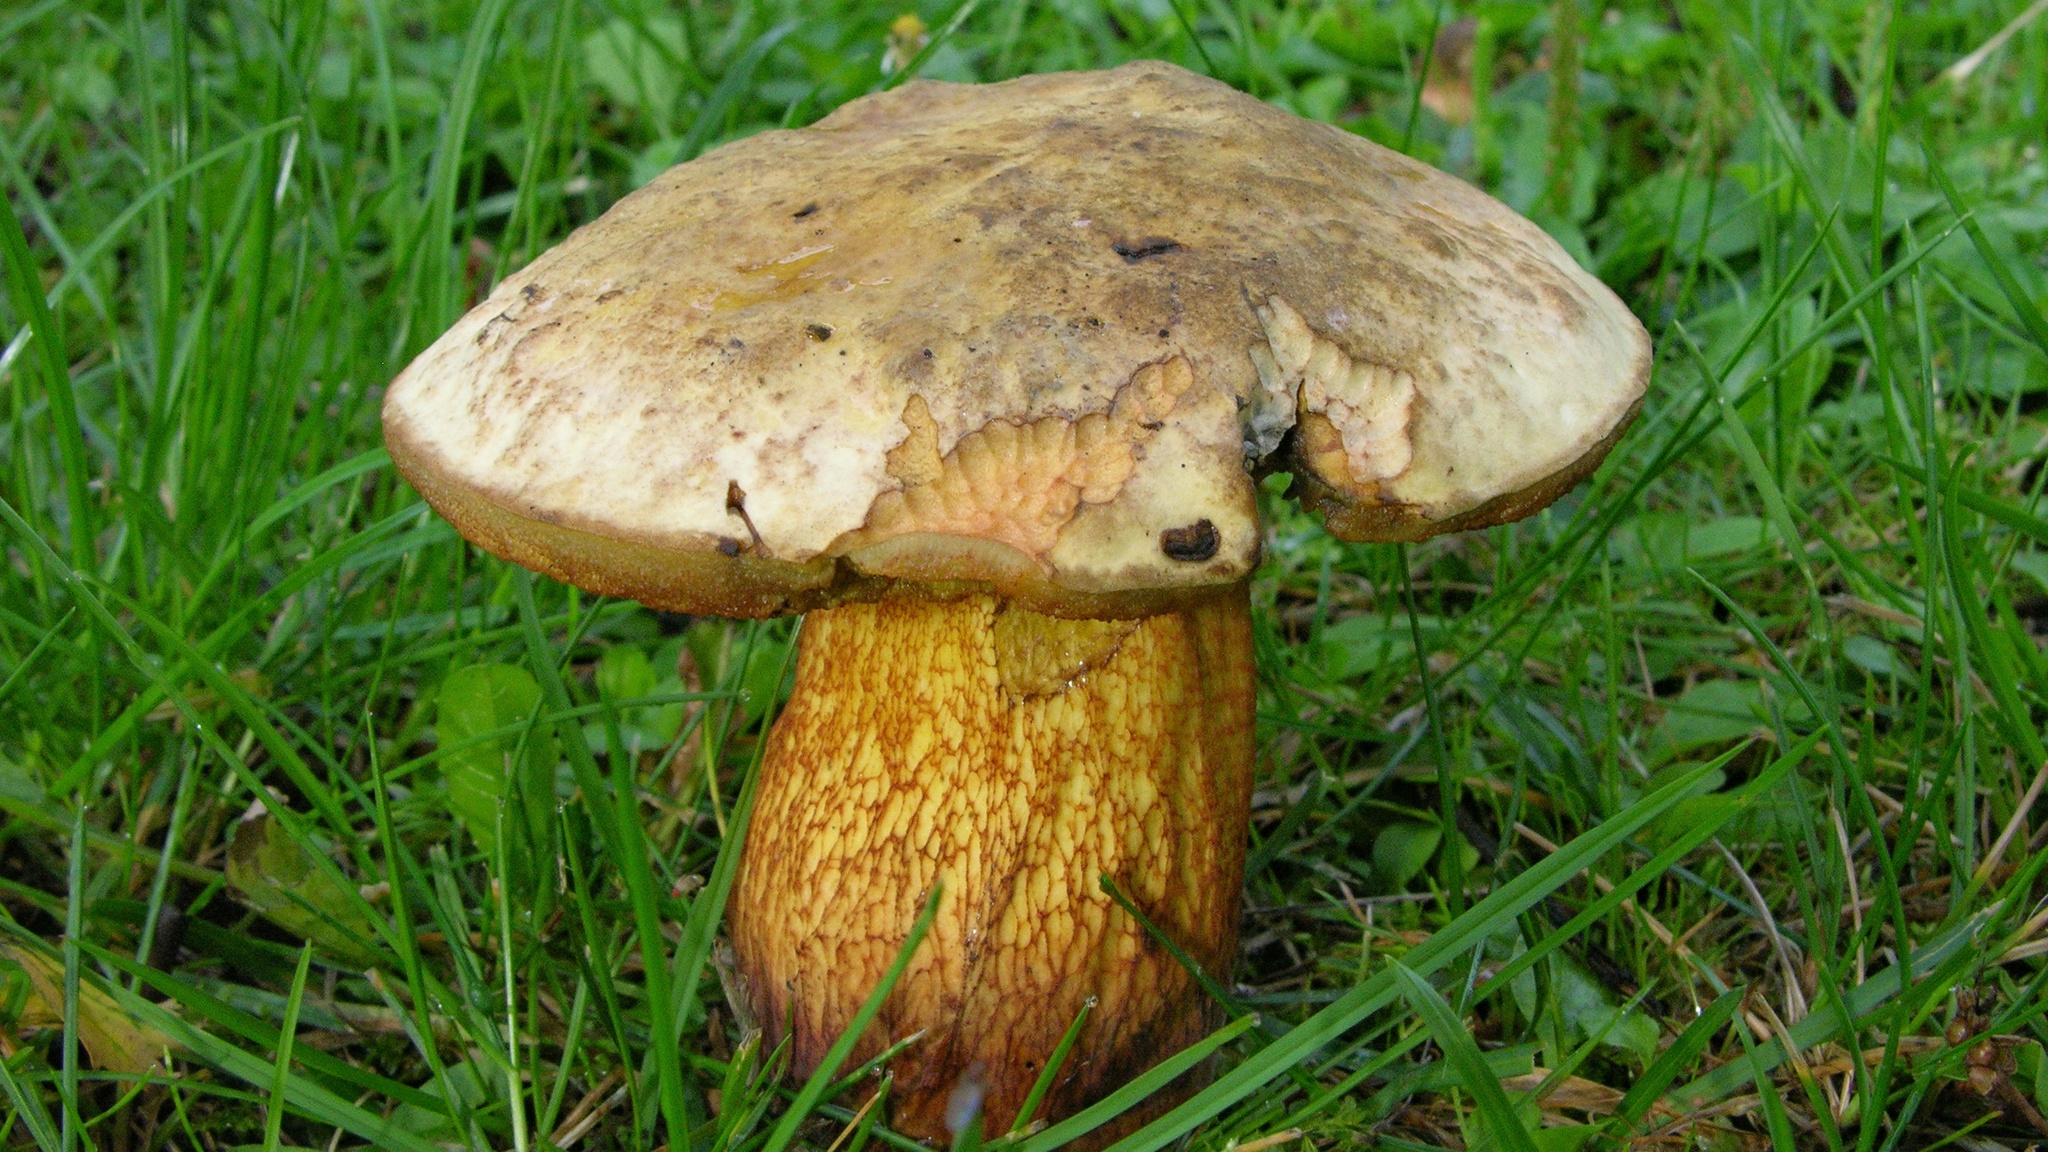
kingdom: Fungi
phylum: Basidiomycota
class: Agaricomycetes
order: Boletales
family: Boletaceae
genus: Suillellus
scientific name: Suillellus luridus
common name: Lurid bolete
